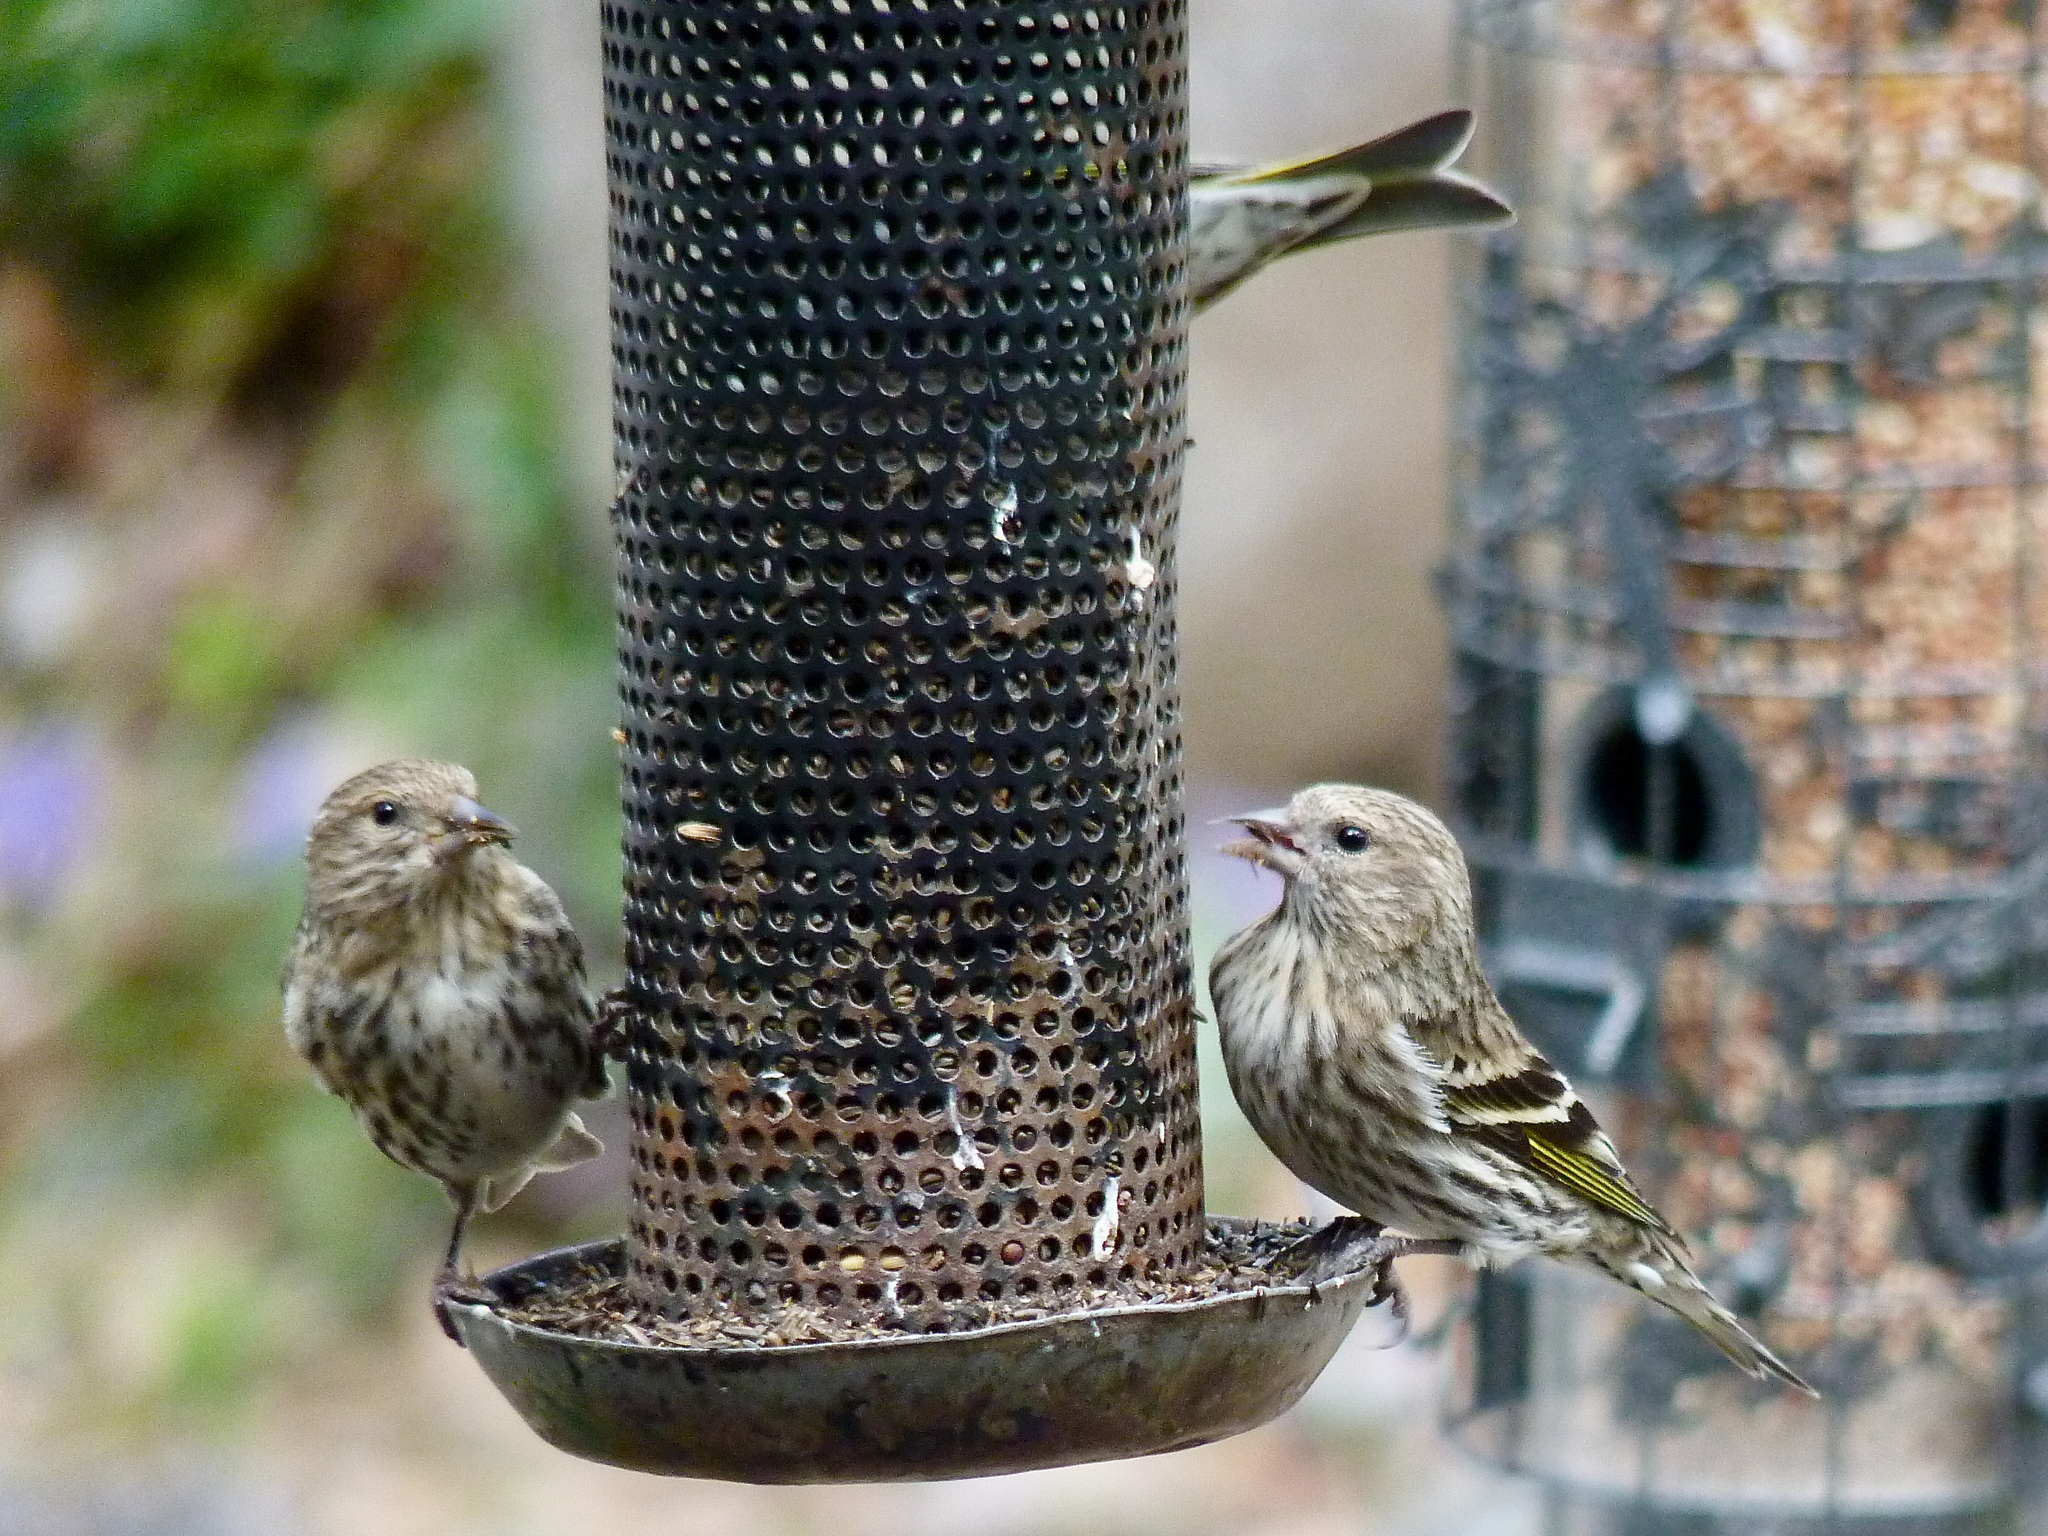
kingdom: Animalia
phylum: Chordata
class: Aves
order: Passeriformes
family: Fringillidae
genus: Spinus
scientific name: Spinus pinus
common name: Pine siskin
